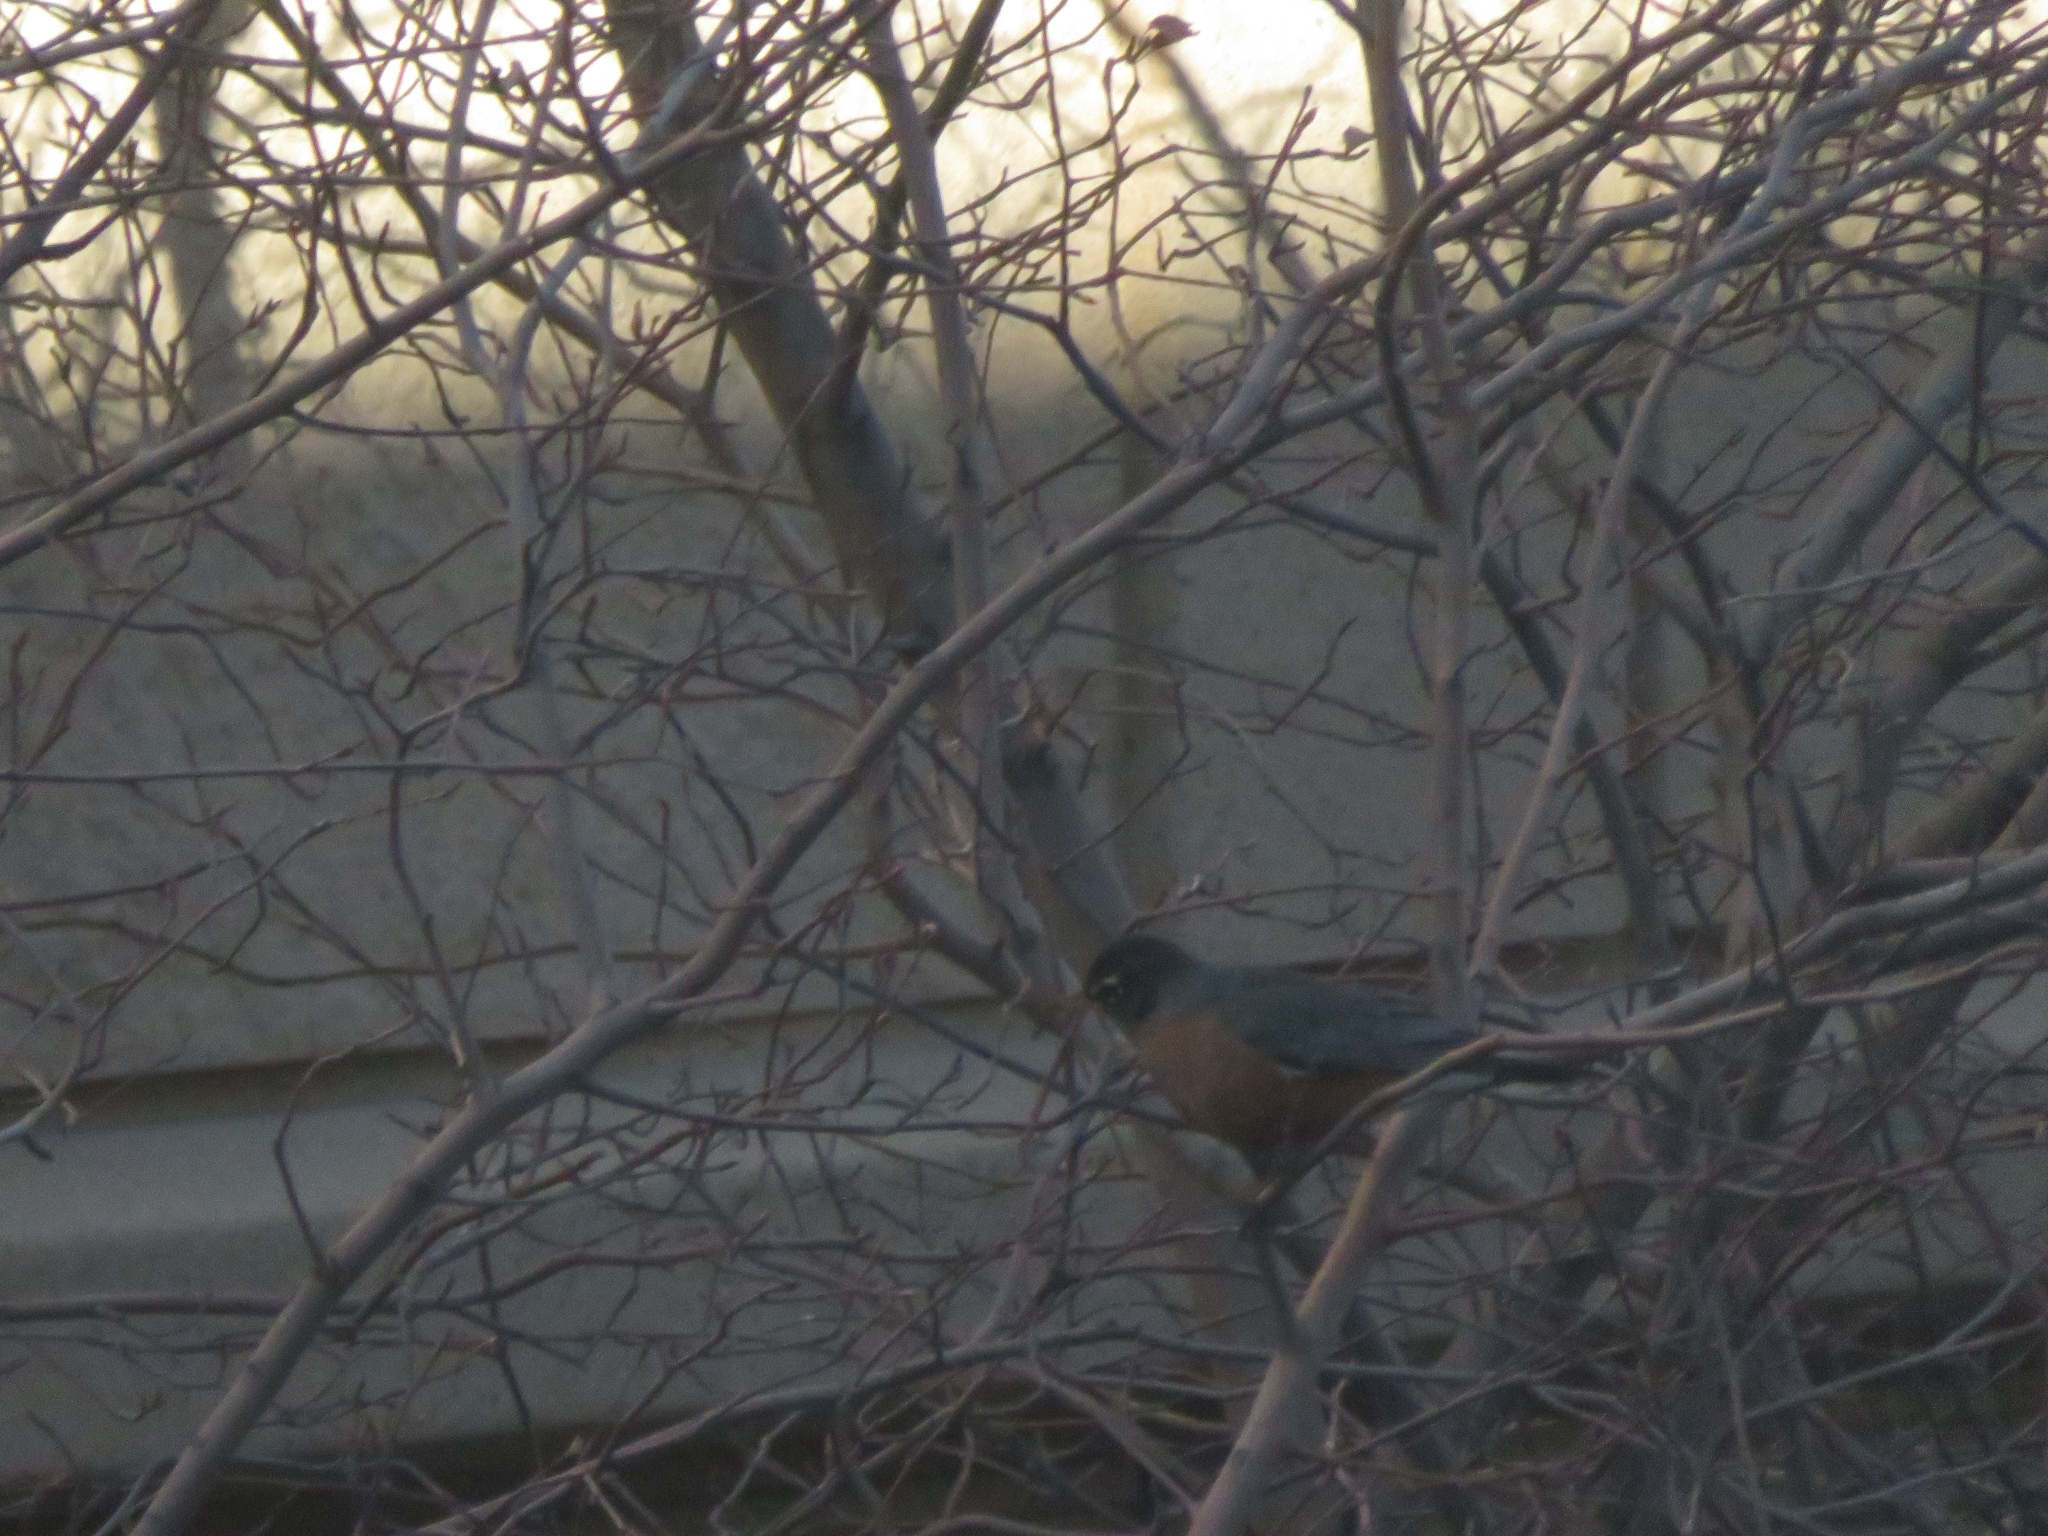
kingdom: Animalia
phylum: Chordata
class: Aves
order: Passeriformes
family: Turdidae
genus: Turdus
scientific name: Turdus migratorius
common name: American robin
